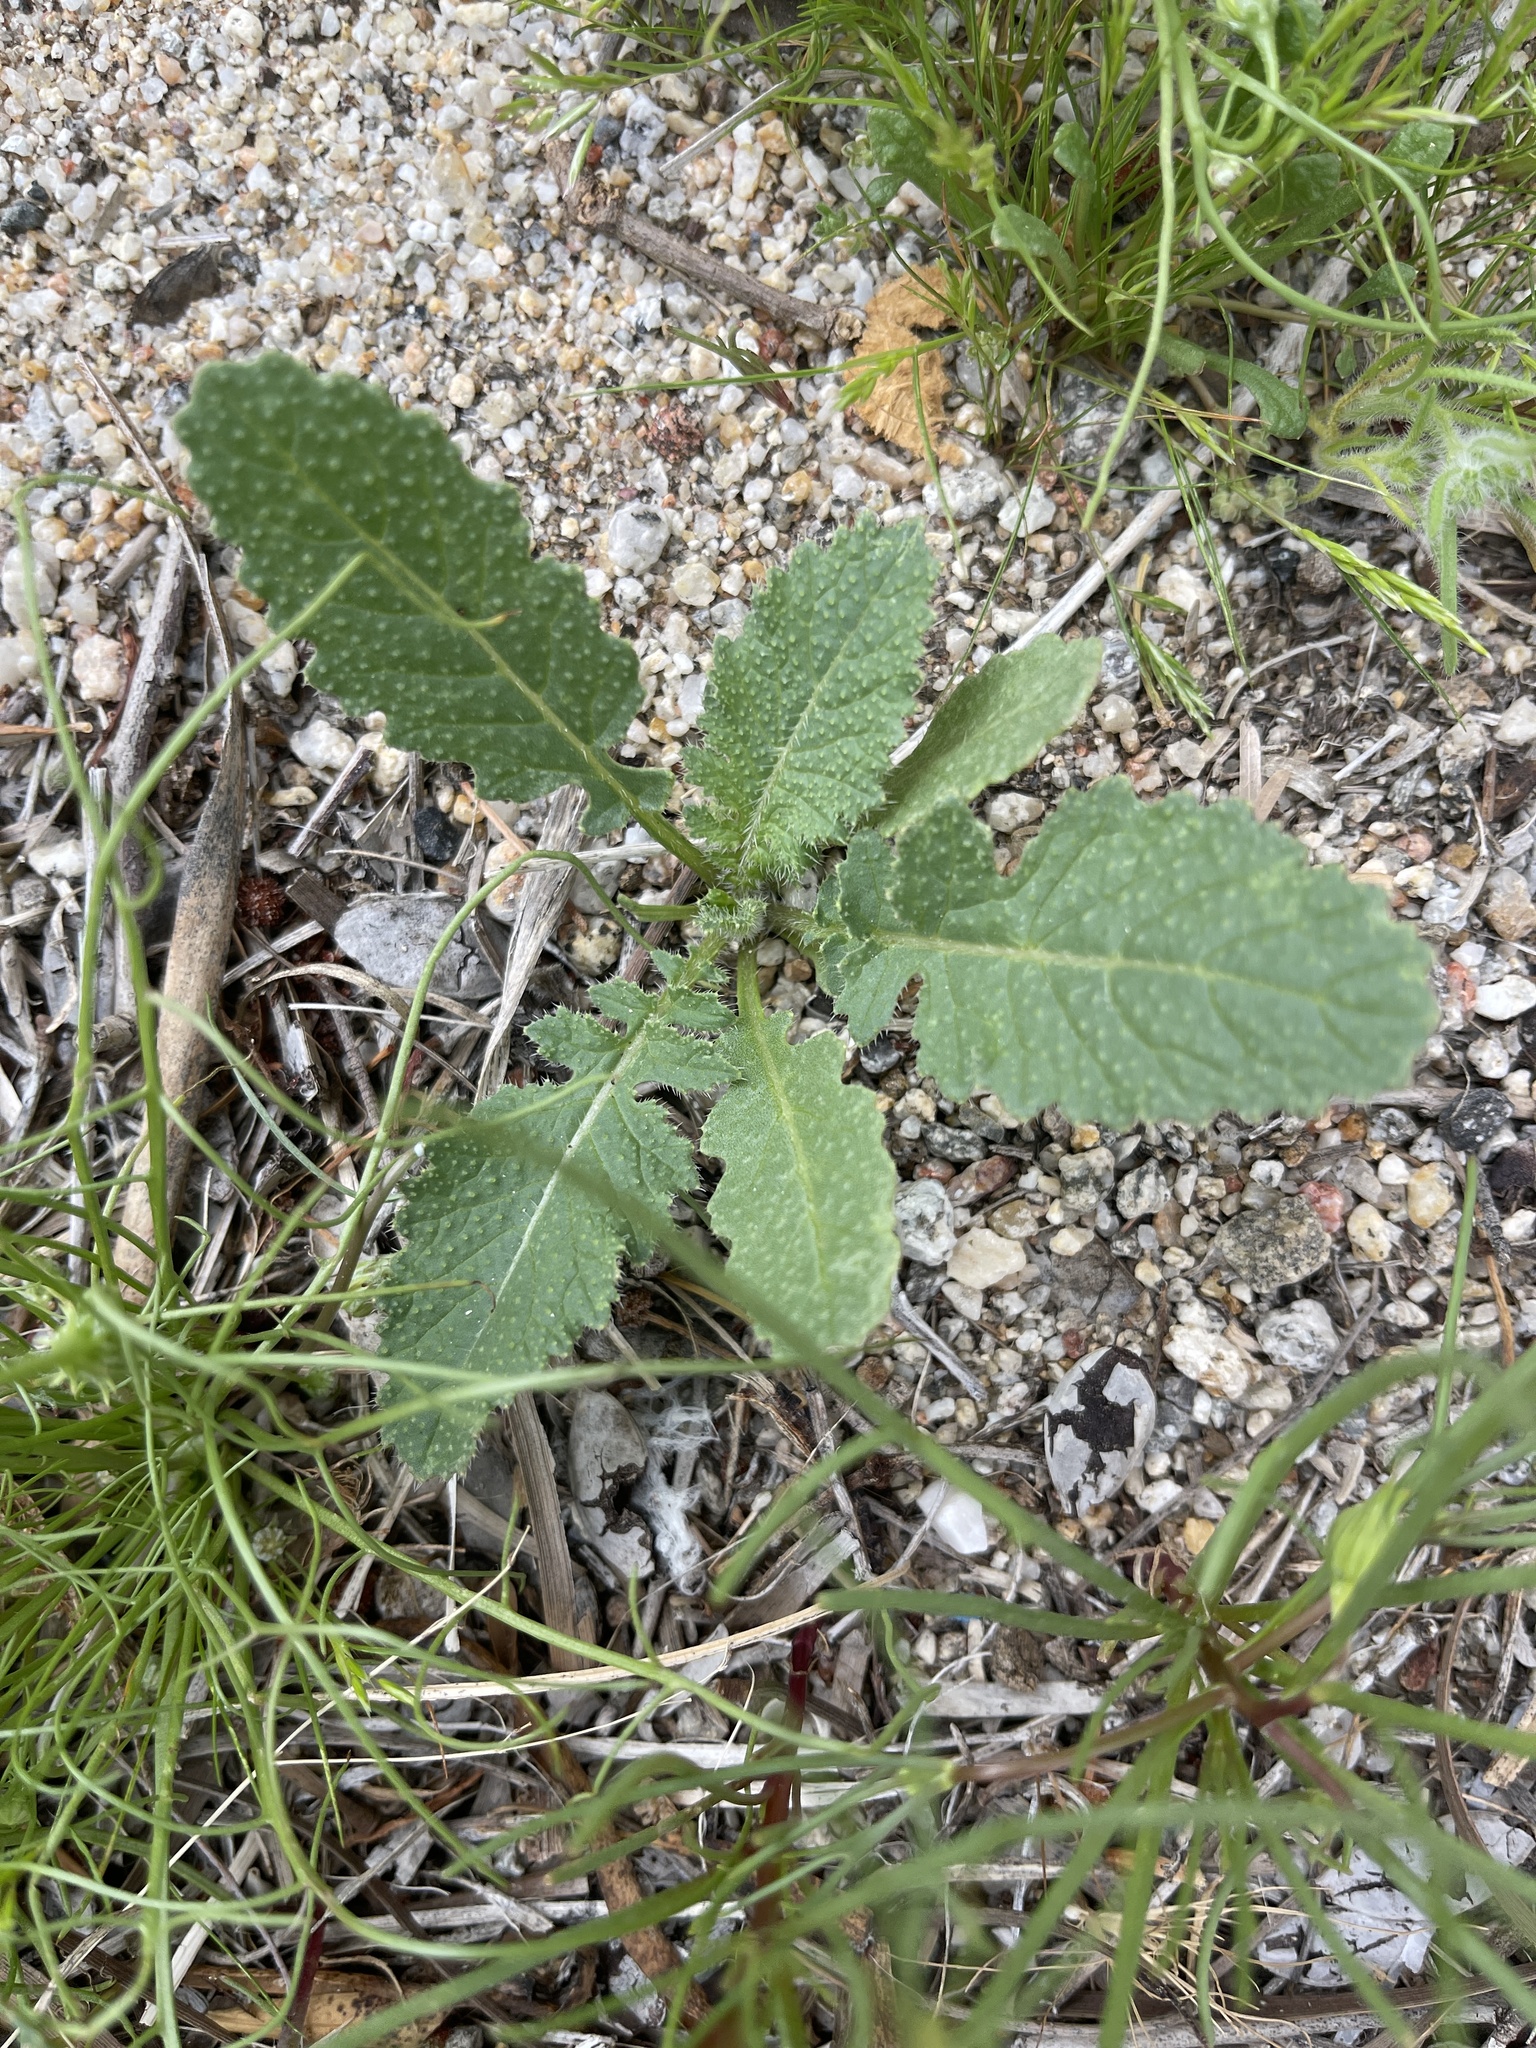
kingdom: Plantae
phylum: Tracheophyta
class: Magnoliopsida
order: Brassicales
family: Brassicaceae
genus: Brassica
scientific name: Brassica tournefortii
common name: Pale cabbage
